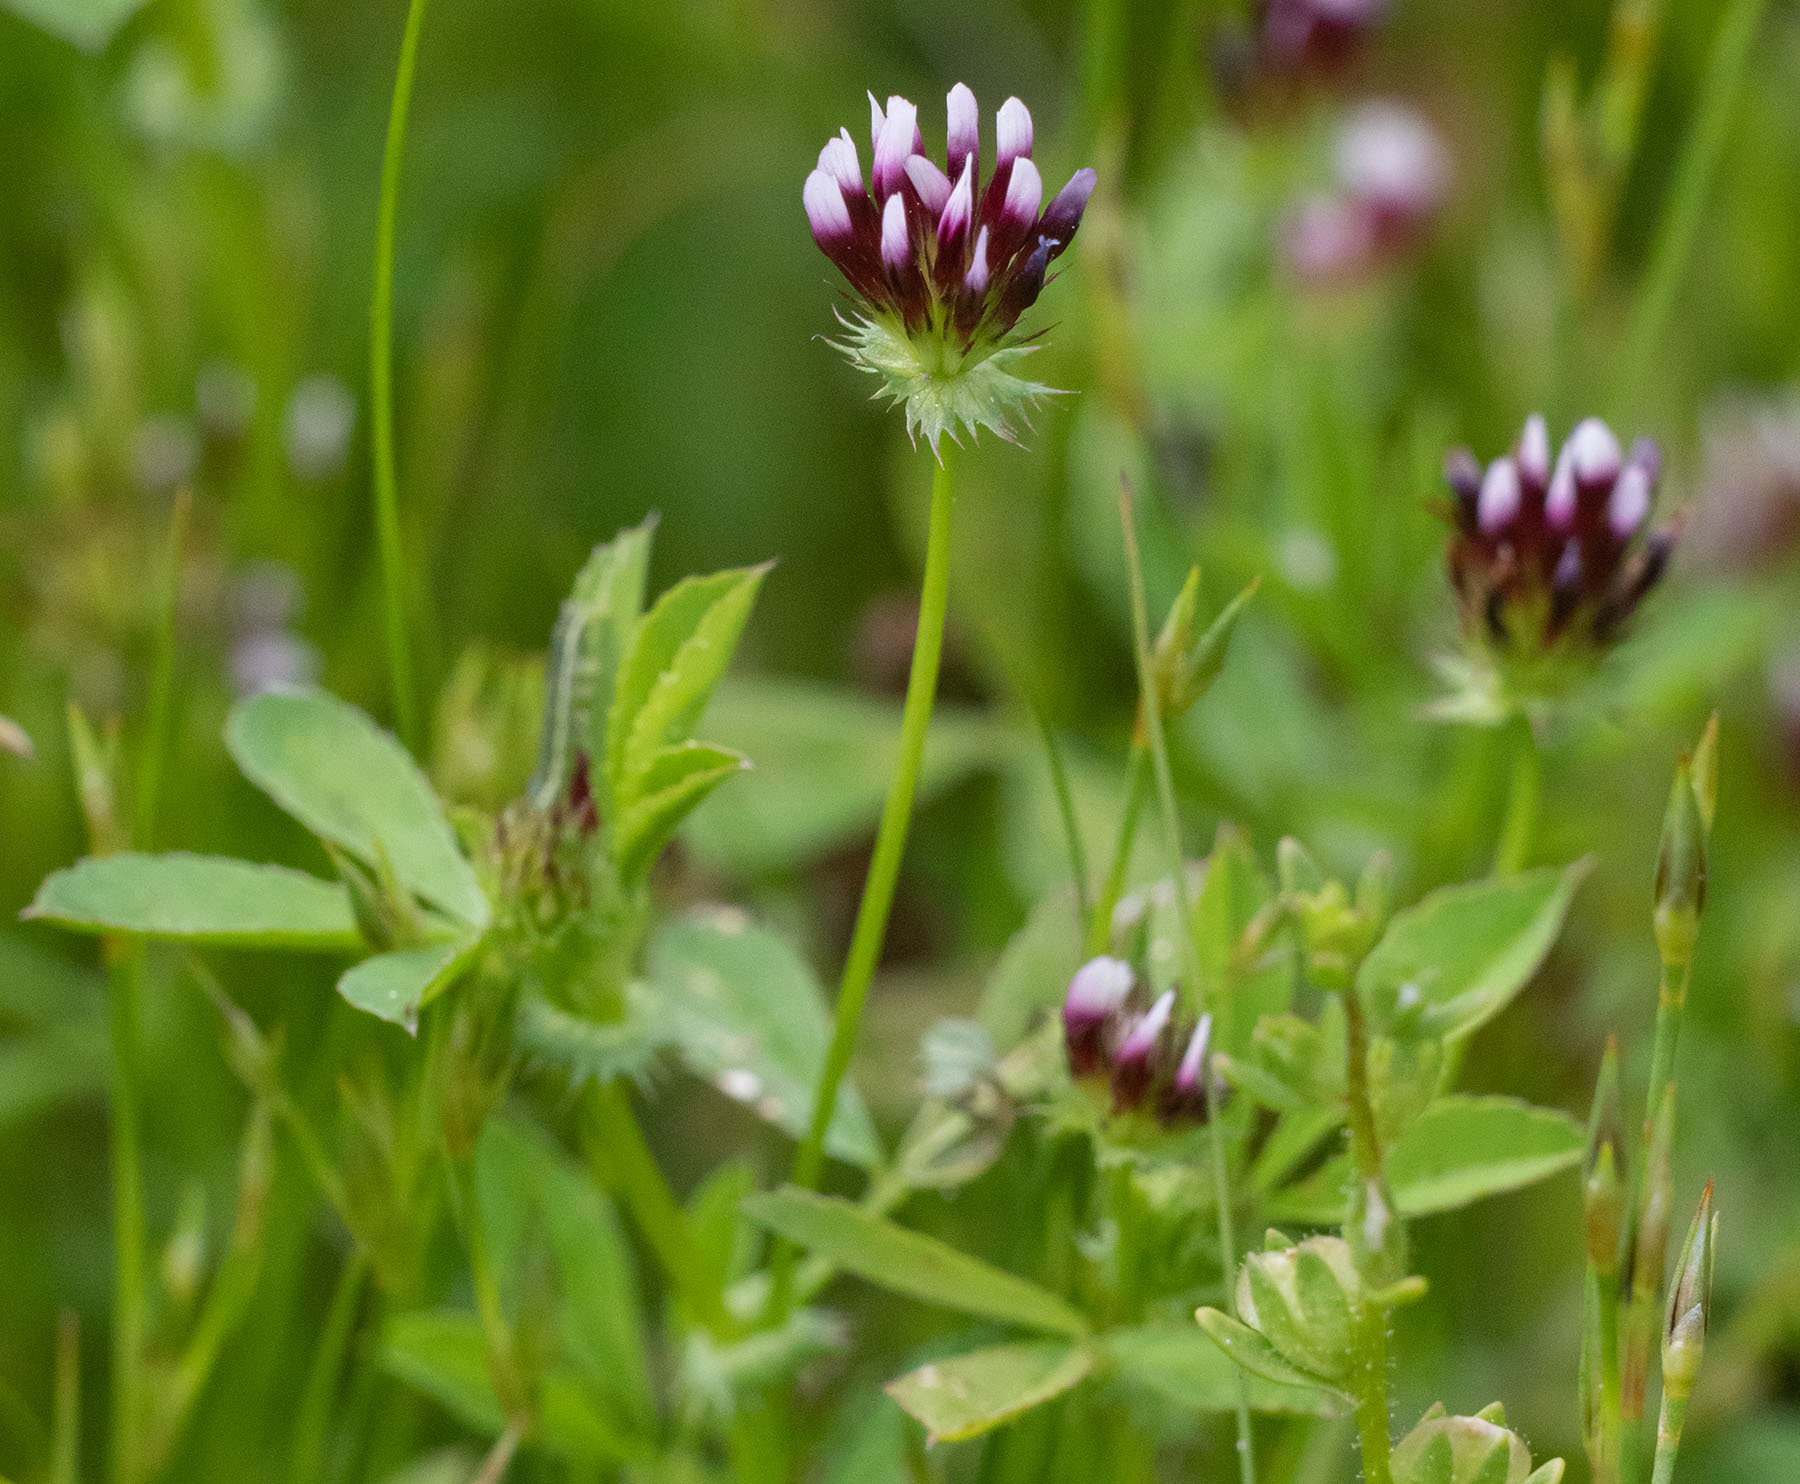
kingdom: Plantae
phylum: Tracheophyta
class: Magnoliopsida
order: Fabales
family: Fabaceae
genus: Trifolium
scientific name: Trifolium variegatum
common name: Whitetip clover
